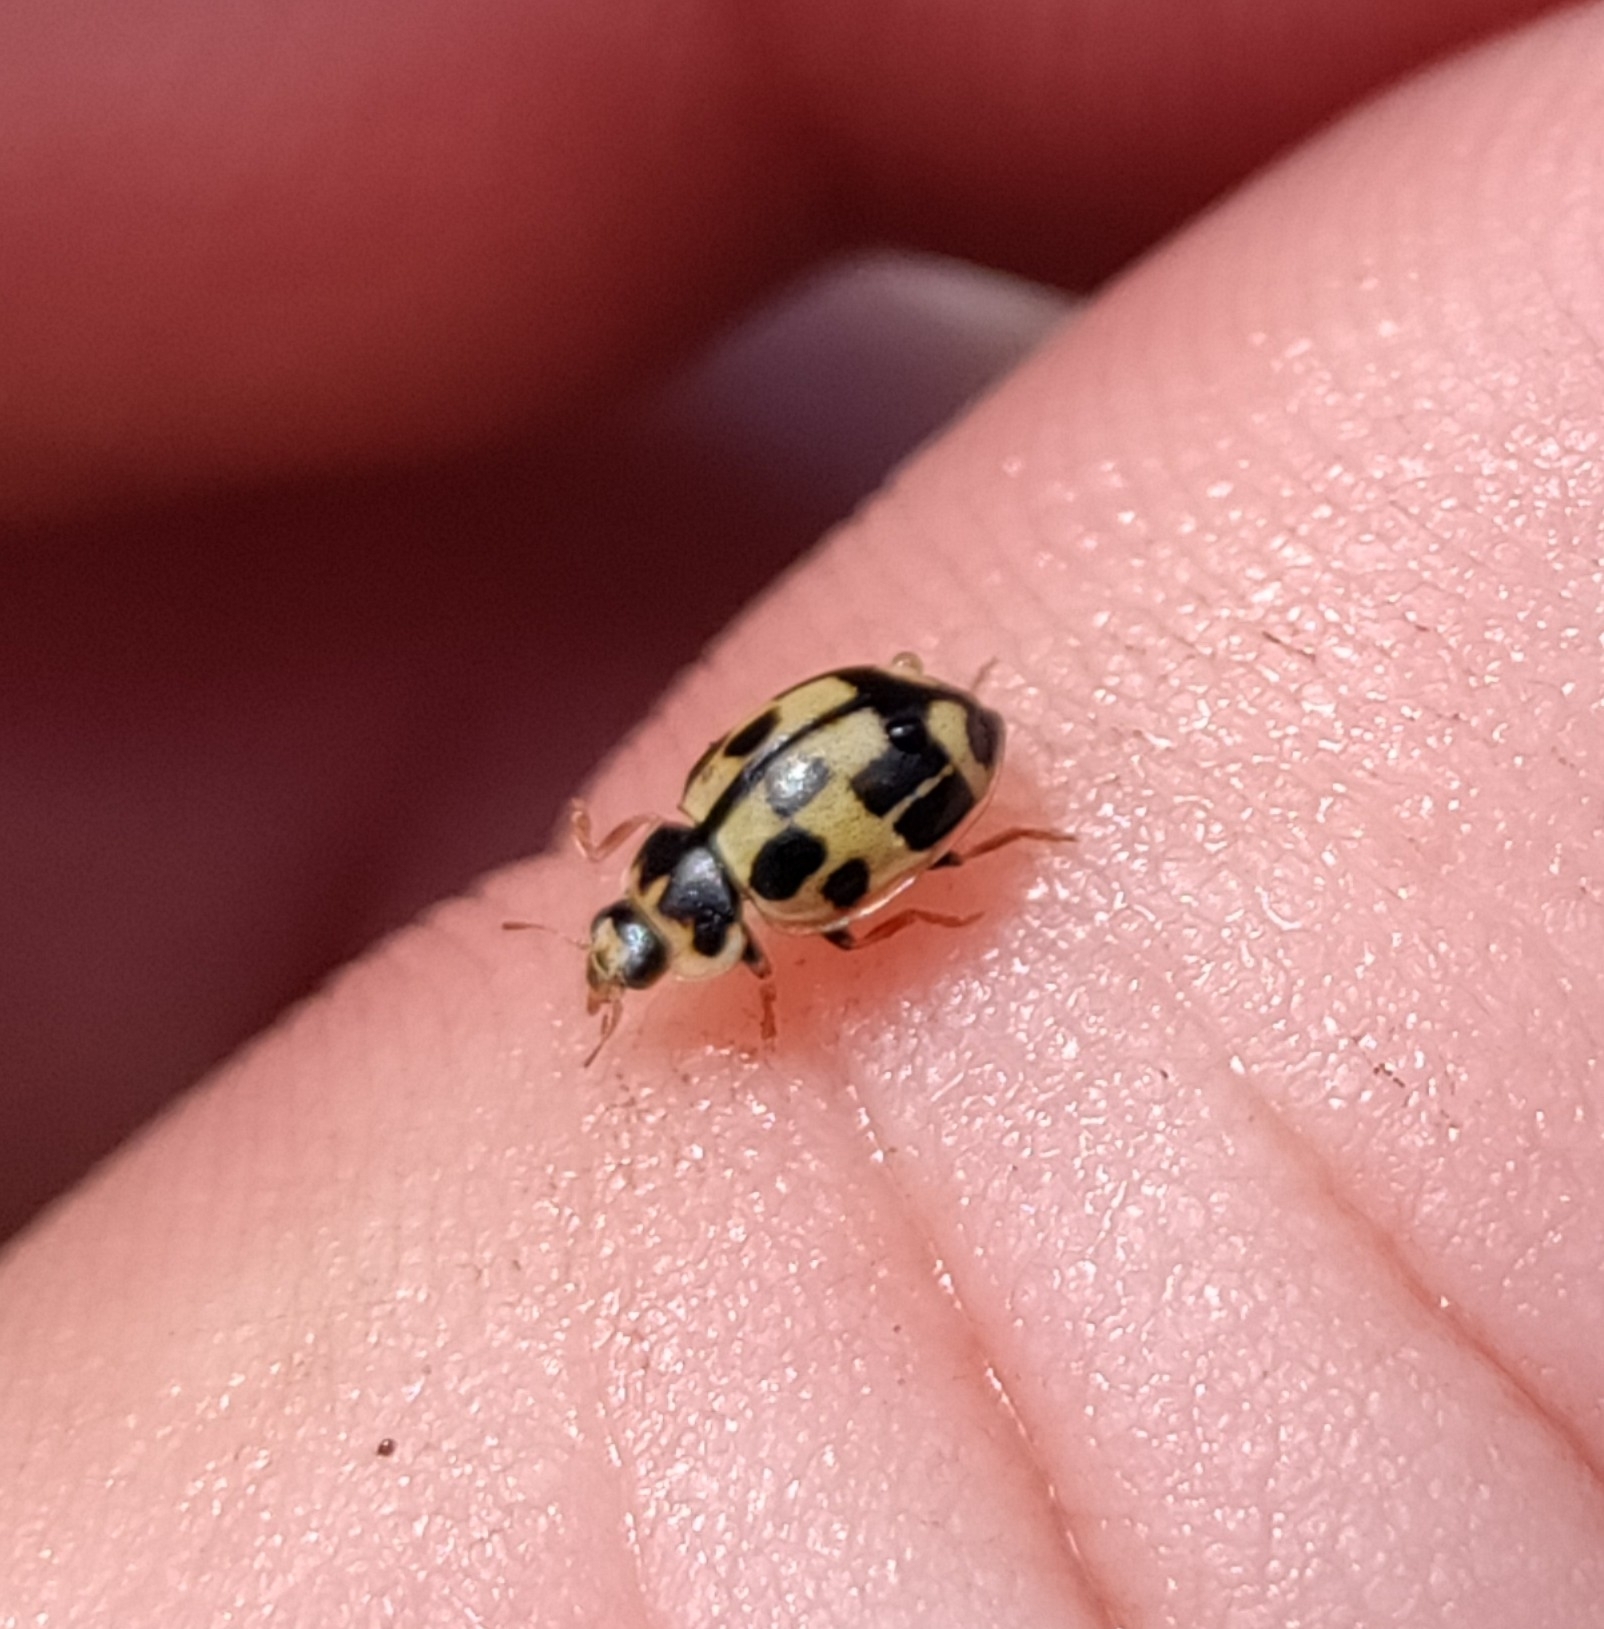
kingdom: Animalia
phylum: Arthropoda
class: Insecta
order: Coleoptera
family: Coccinellidae
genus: Propylaea
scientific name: Propylaea quatuordecimpunctata
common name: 14-spotted ladybird beetle
